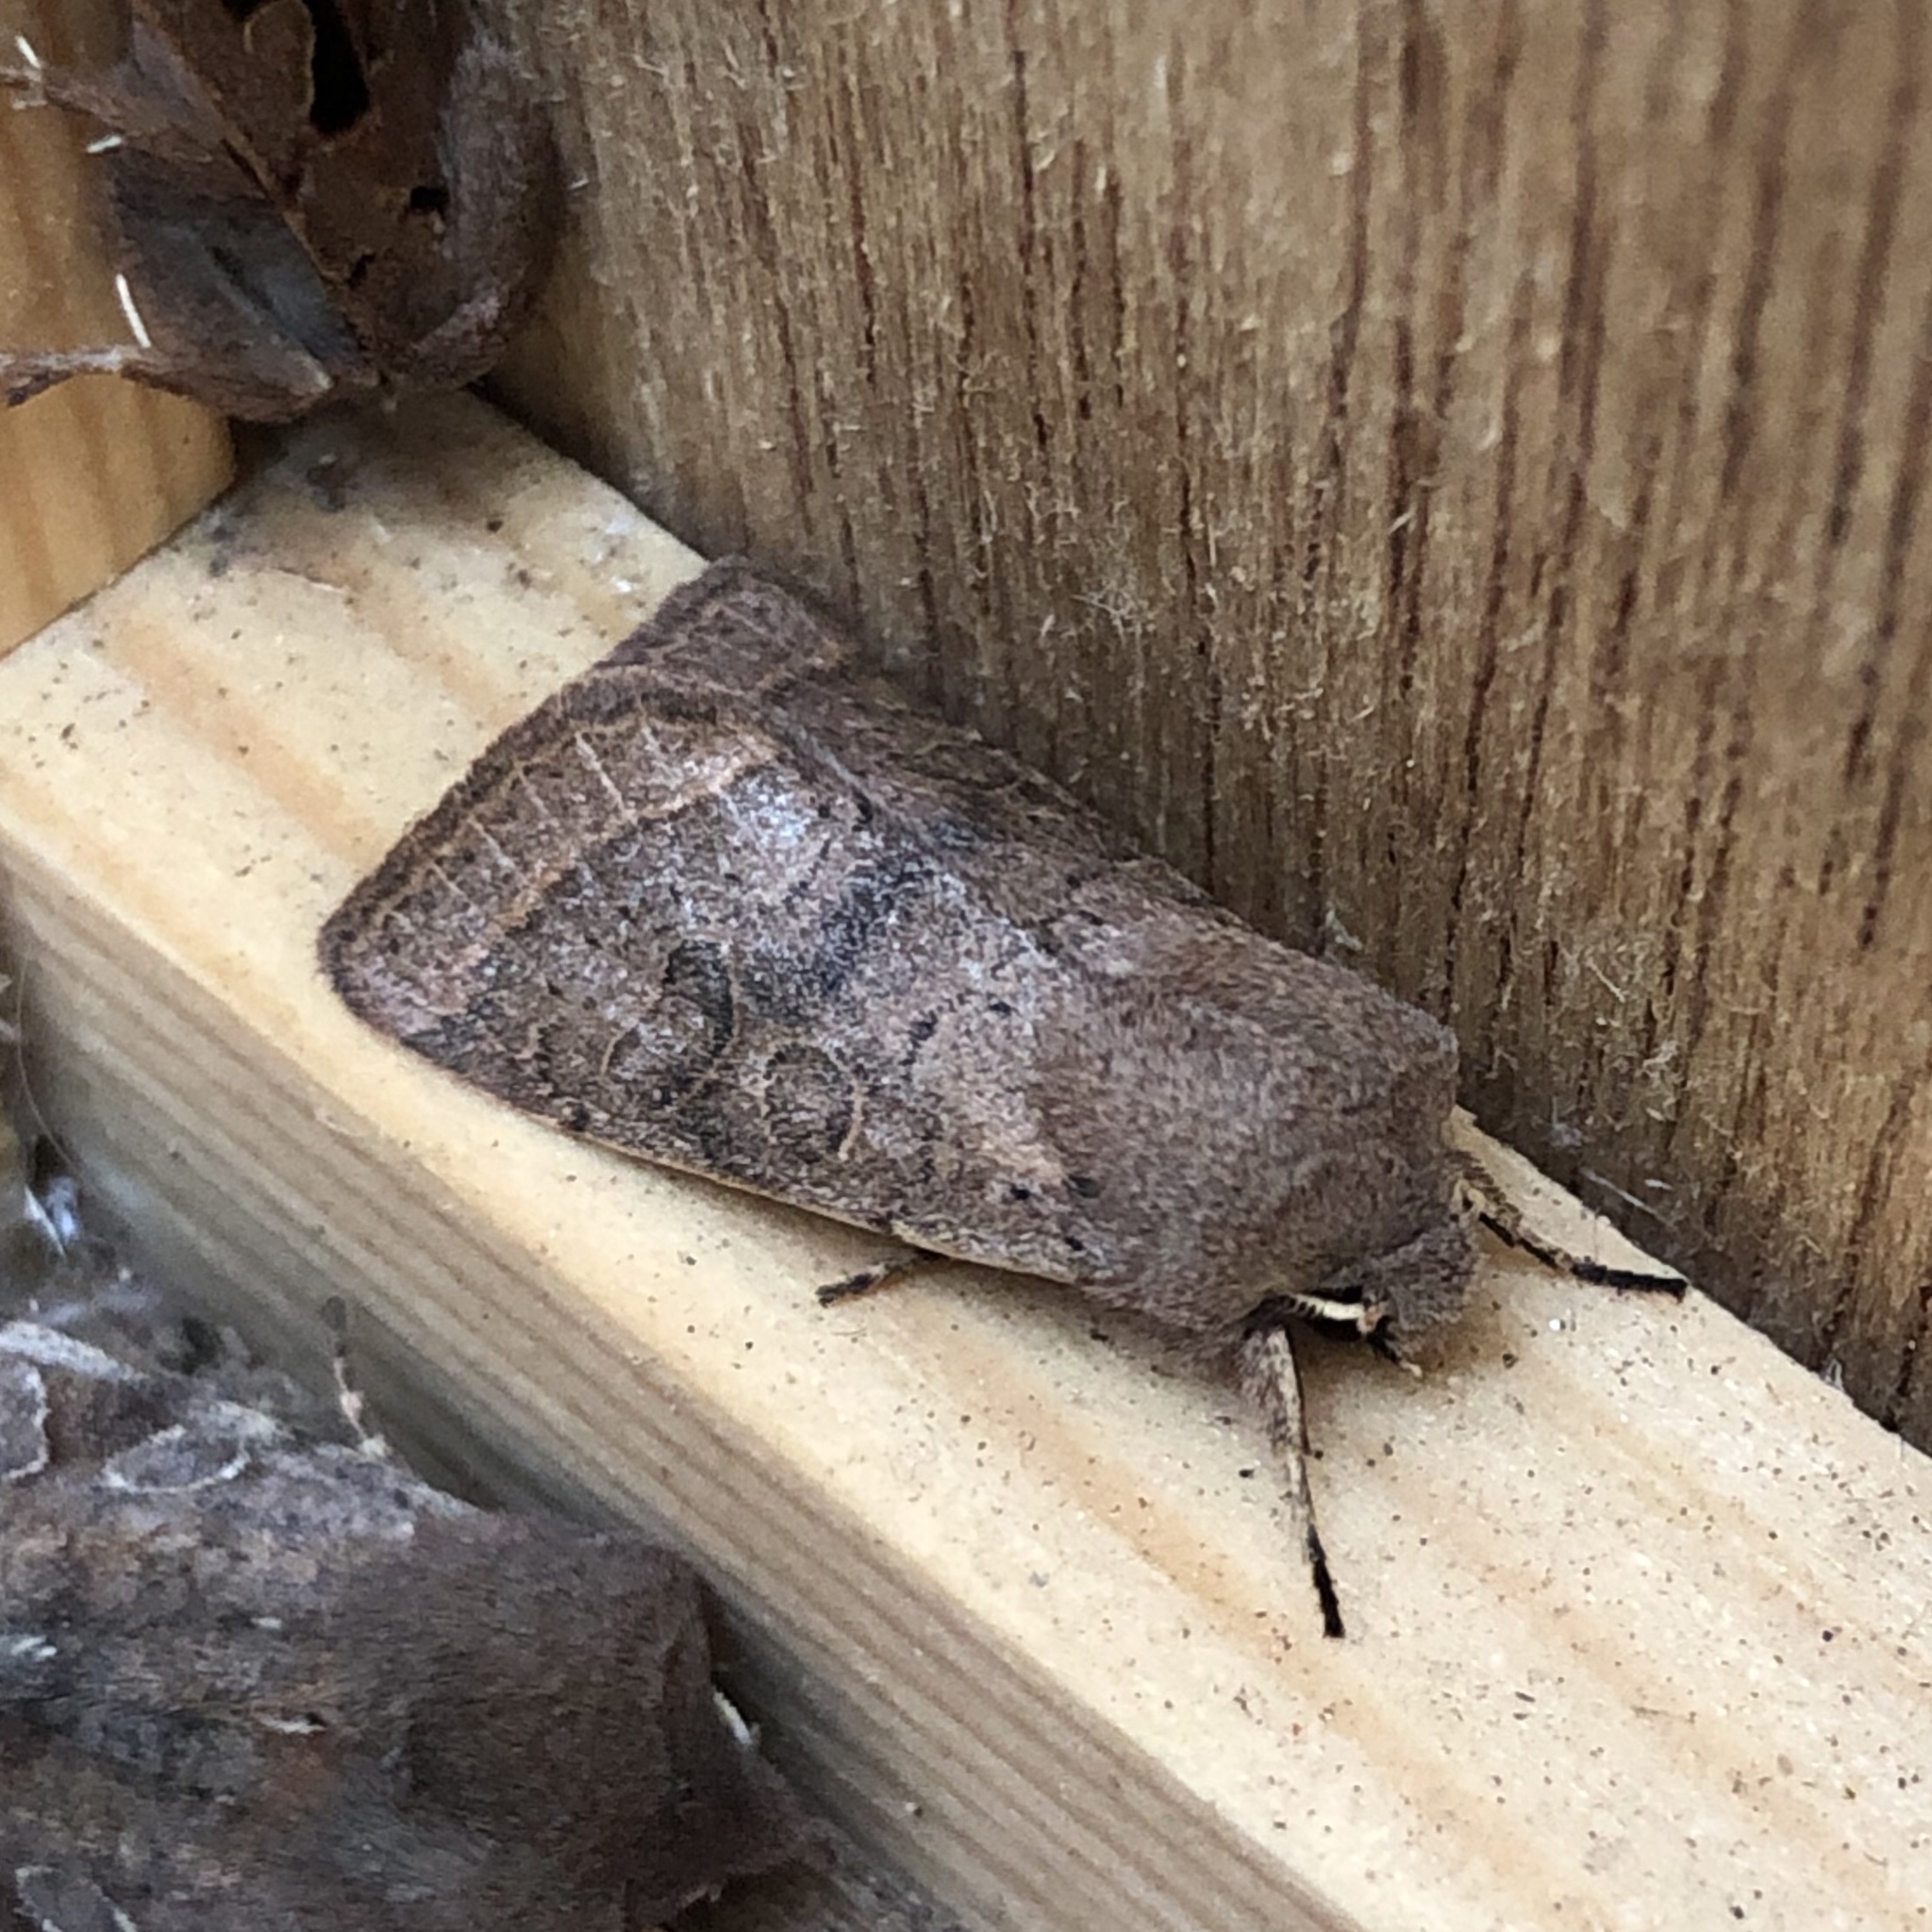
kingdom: Animalia
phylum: Arthropoda
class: Insecta
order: Lepidoptera
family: Noctuidae
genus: Orthosia
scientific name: Orthosia cerasi
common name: Common quaker
